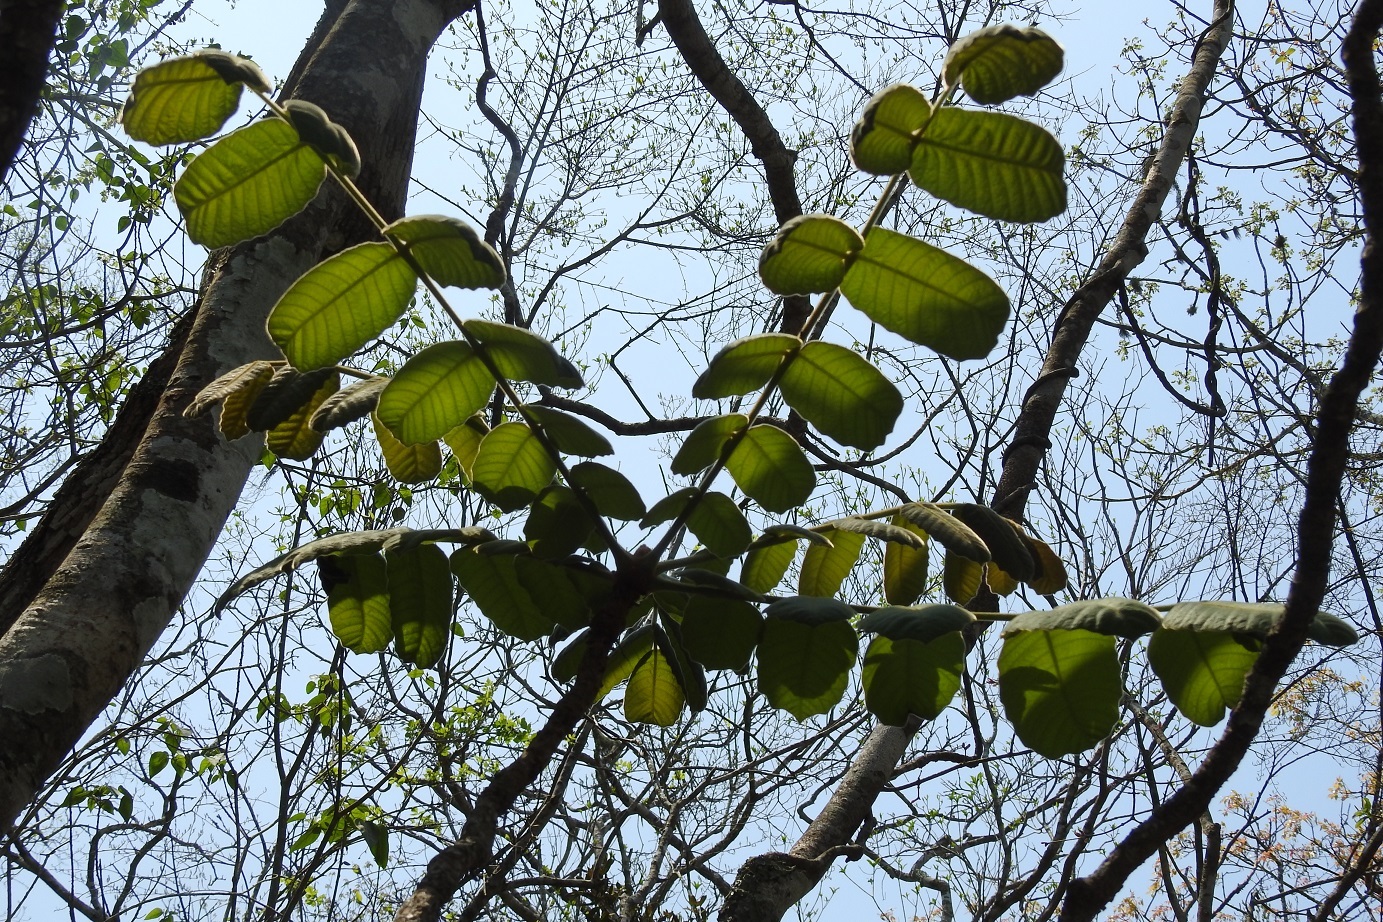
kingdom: Plantae
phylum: Tracheophyta
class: Magnoliopsida
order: Sapindales
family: Anacardiaceae
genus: Comocladia
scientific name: Comocladia guatemalensis
